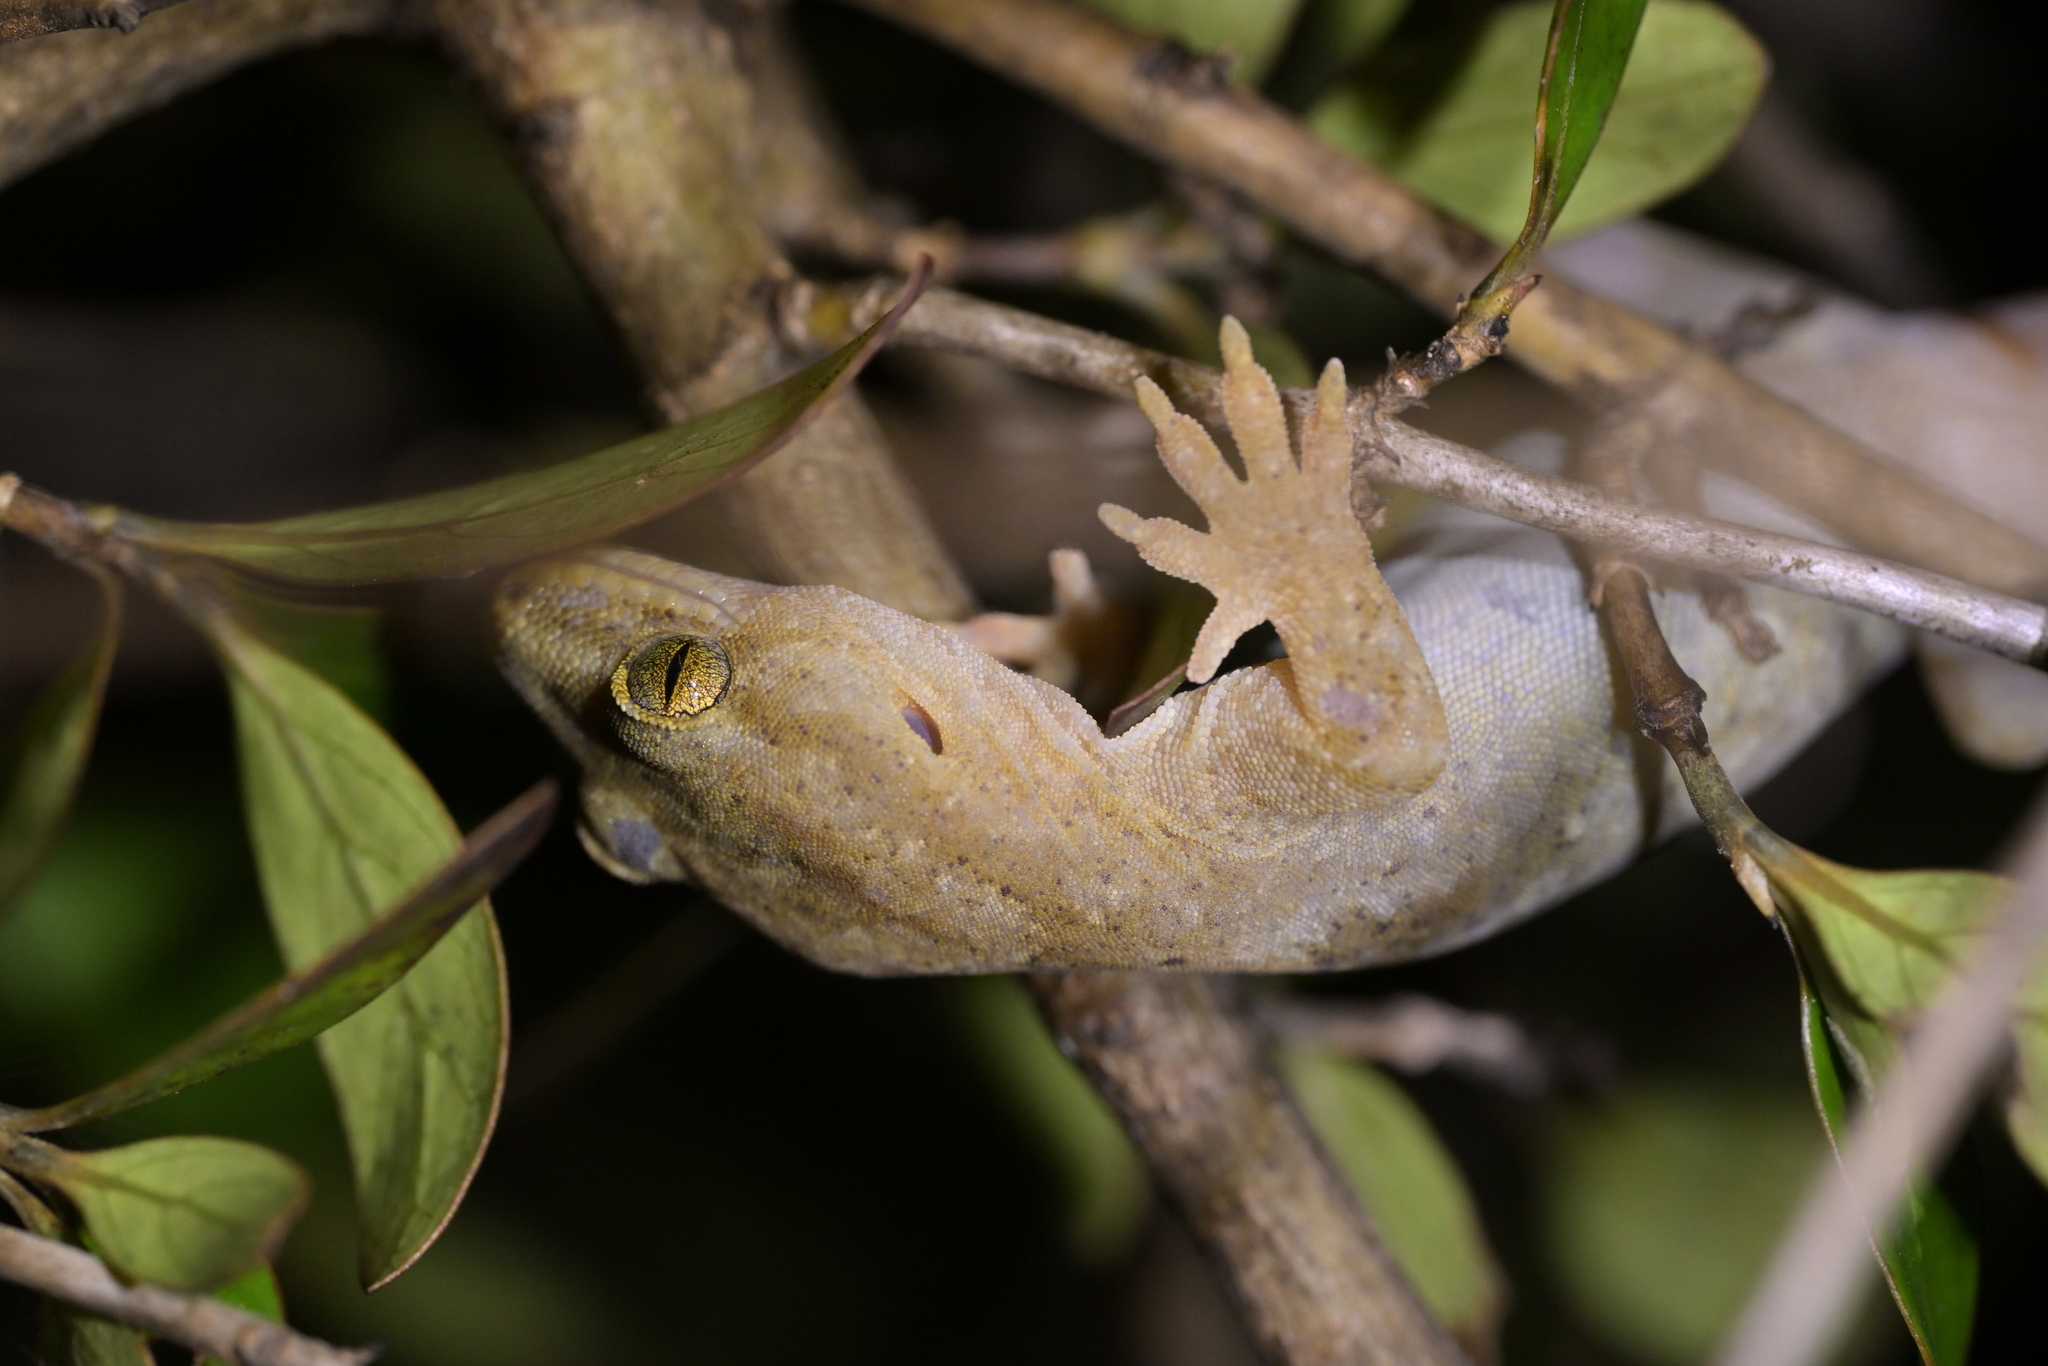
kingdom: Animalia
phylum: Chordata
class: Squamata
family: Diplodactylidae
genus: Woodworthia
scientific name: Woodworthia maculata
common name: Raukawa gecko
